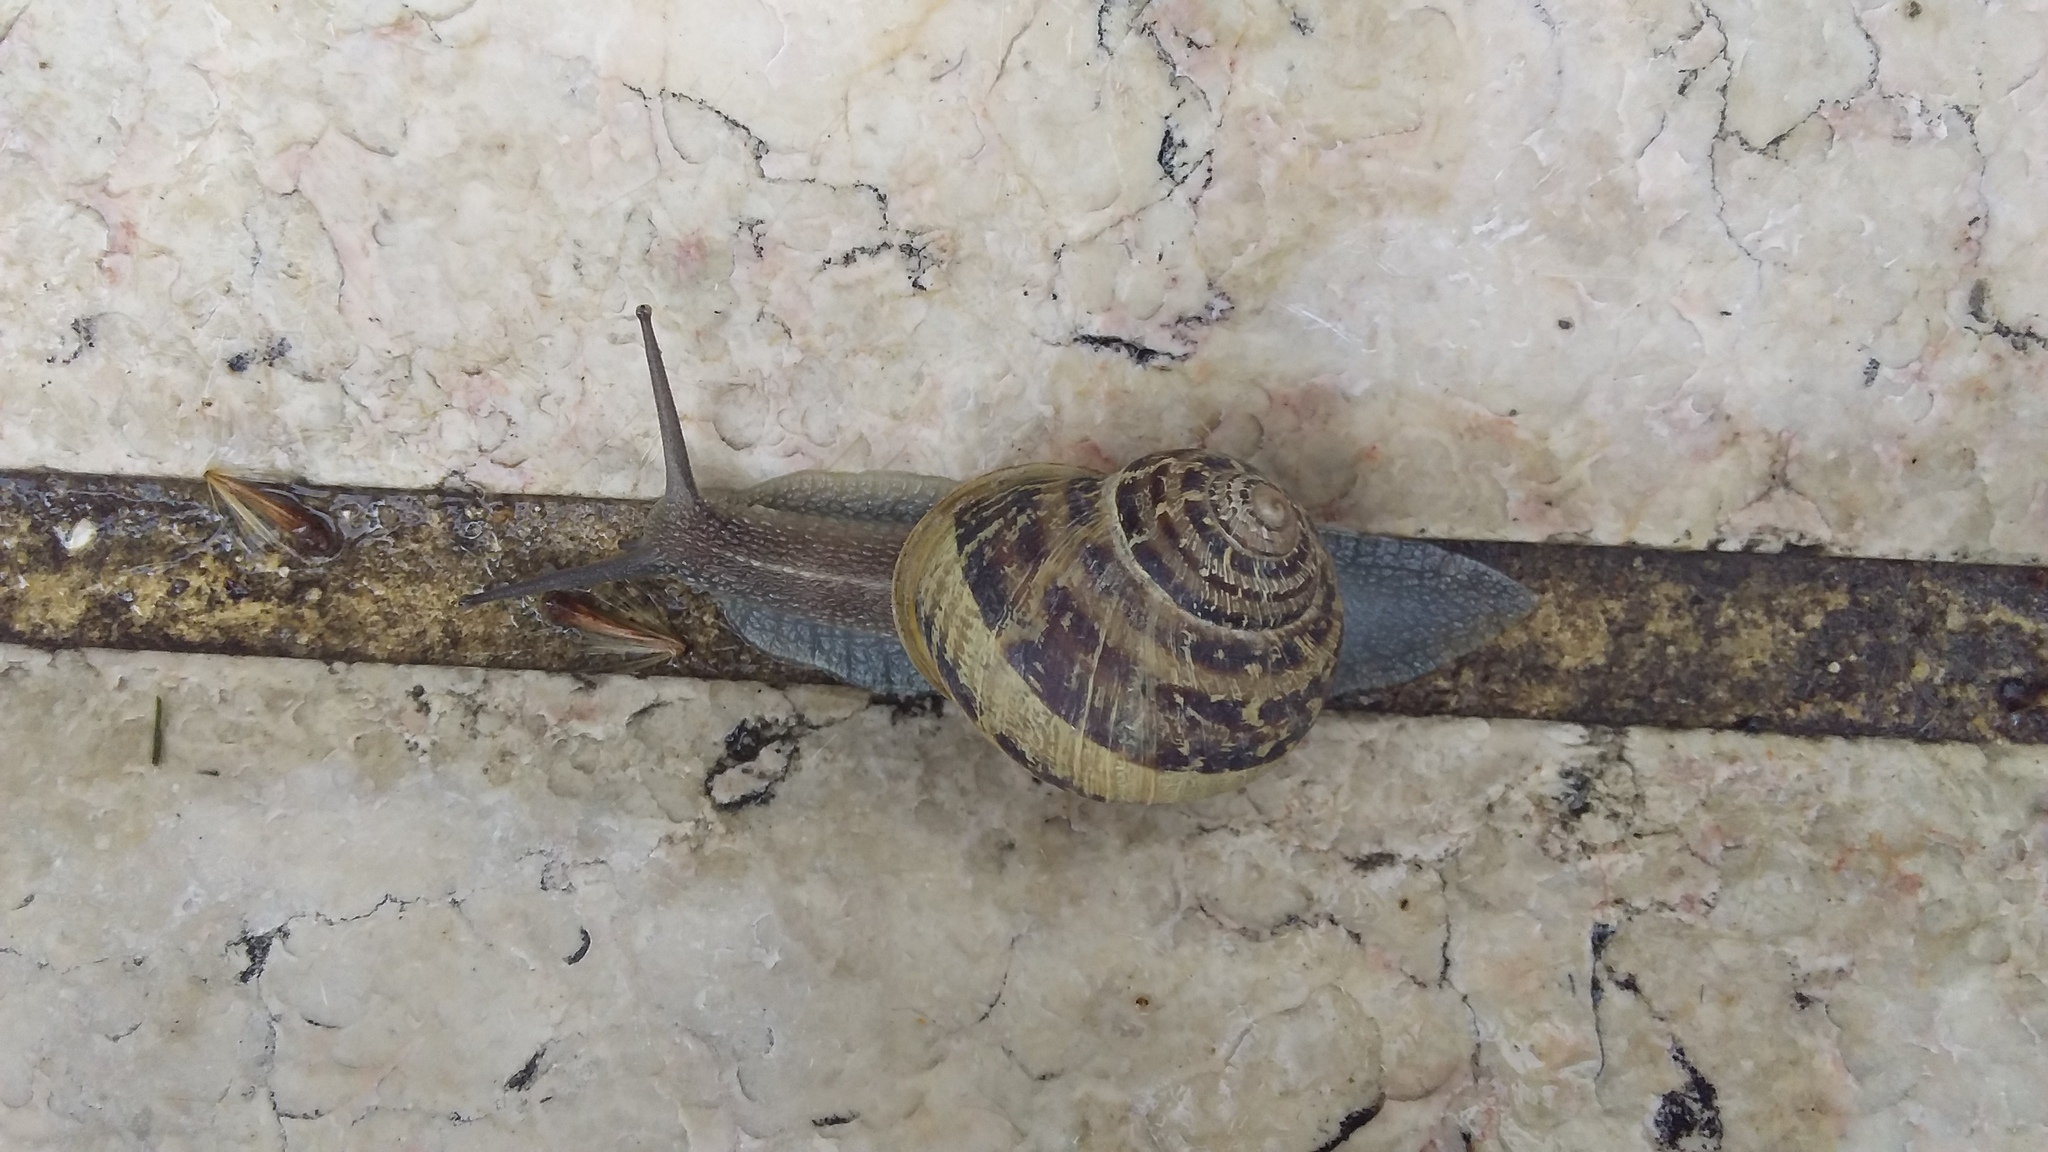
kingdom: Animalia
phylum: Mollusca
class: Gastropoda
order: Stylommatophora
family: Helicidae
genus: Cornu
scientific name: Cornu aspersum
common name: Brown garden snail
